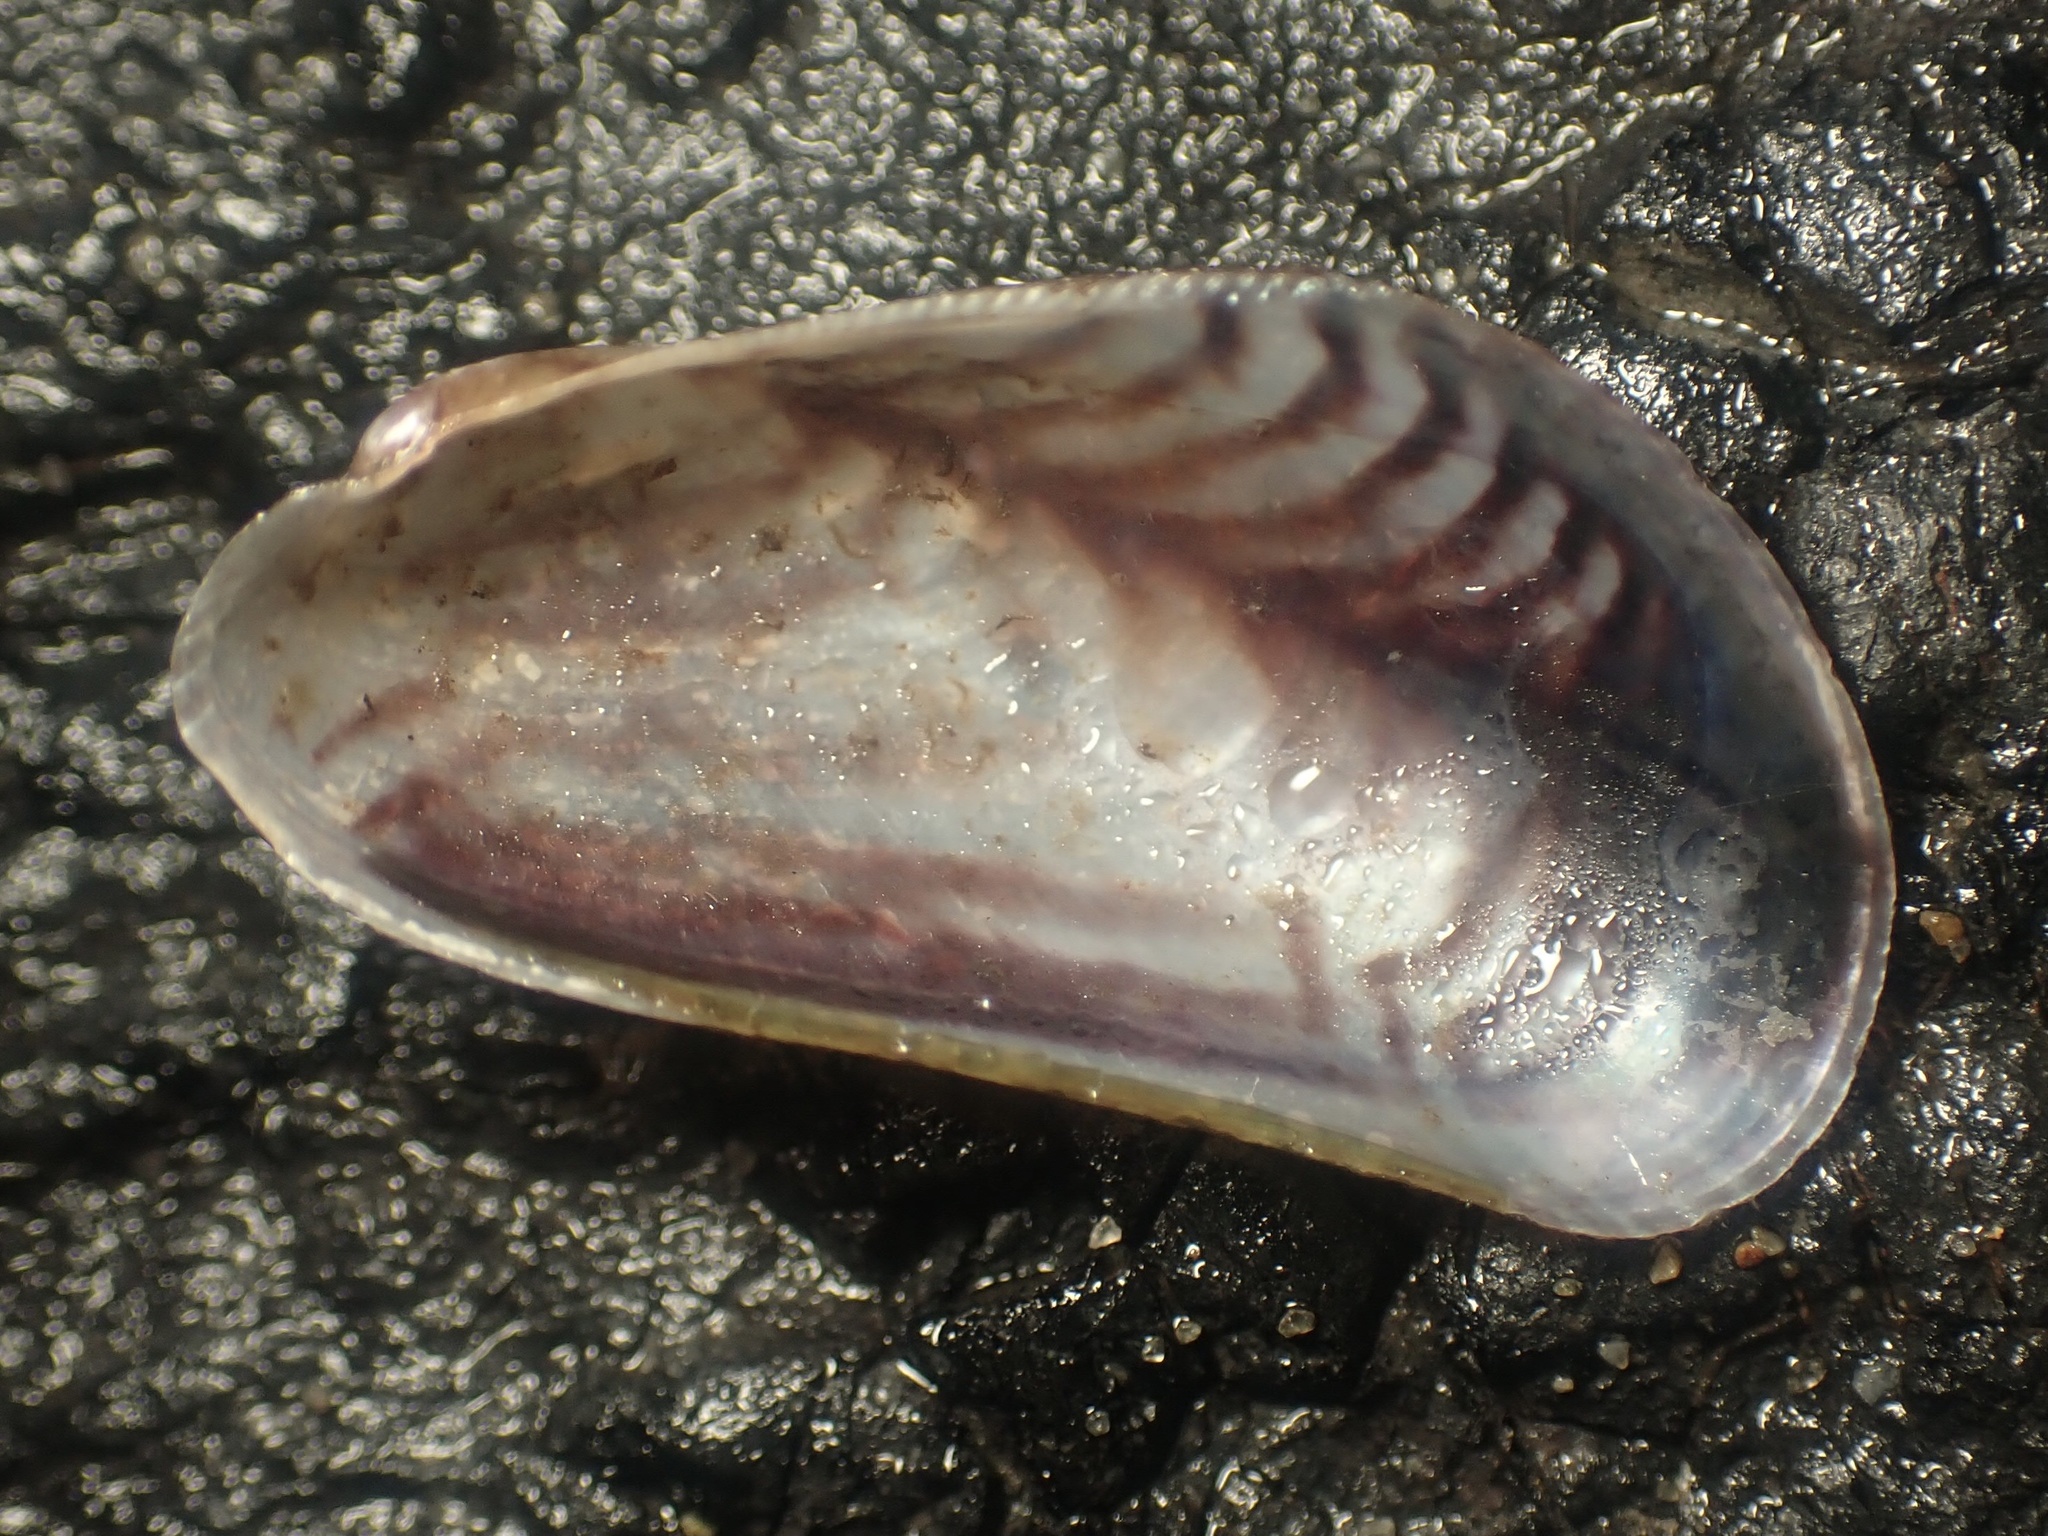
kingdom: Animalia
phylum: Mollusca
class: Bivalvia
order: Mytilida
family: Mytilidae
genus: Arcuatula
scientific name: Arcuatula senhousia
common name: Asian mussel
